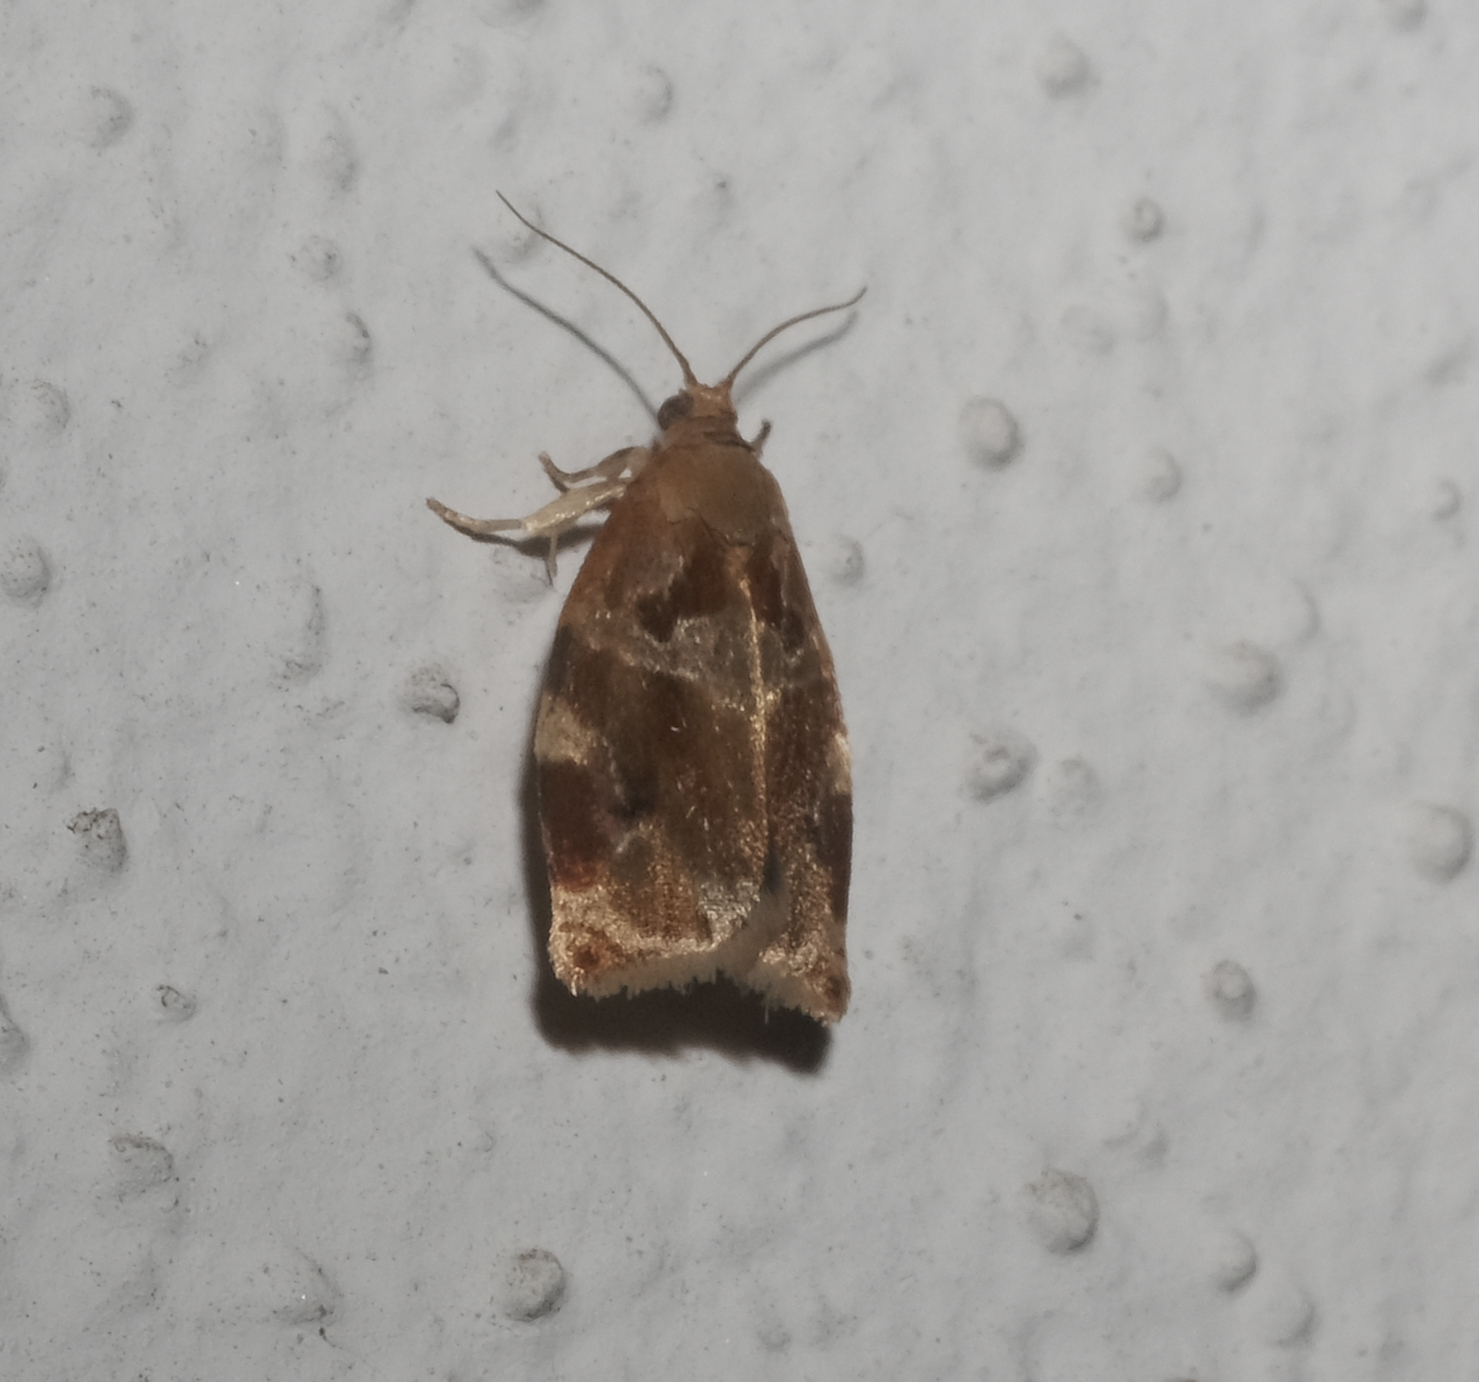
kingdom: Animalia
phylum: Arthropoda
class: Insecta
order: Lepidoptera
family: Tortricidae
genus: Archips
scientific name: Archips xylosteana
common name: Variegated golden tortrix
